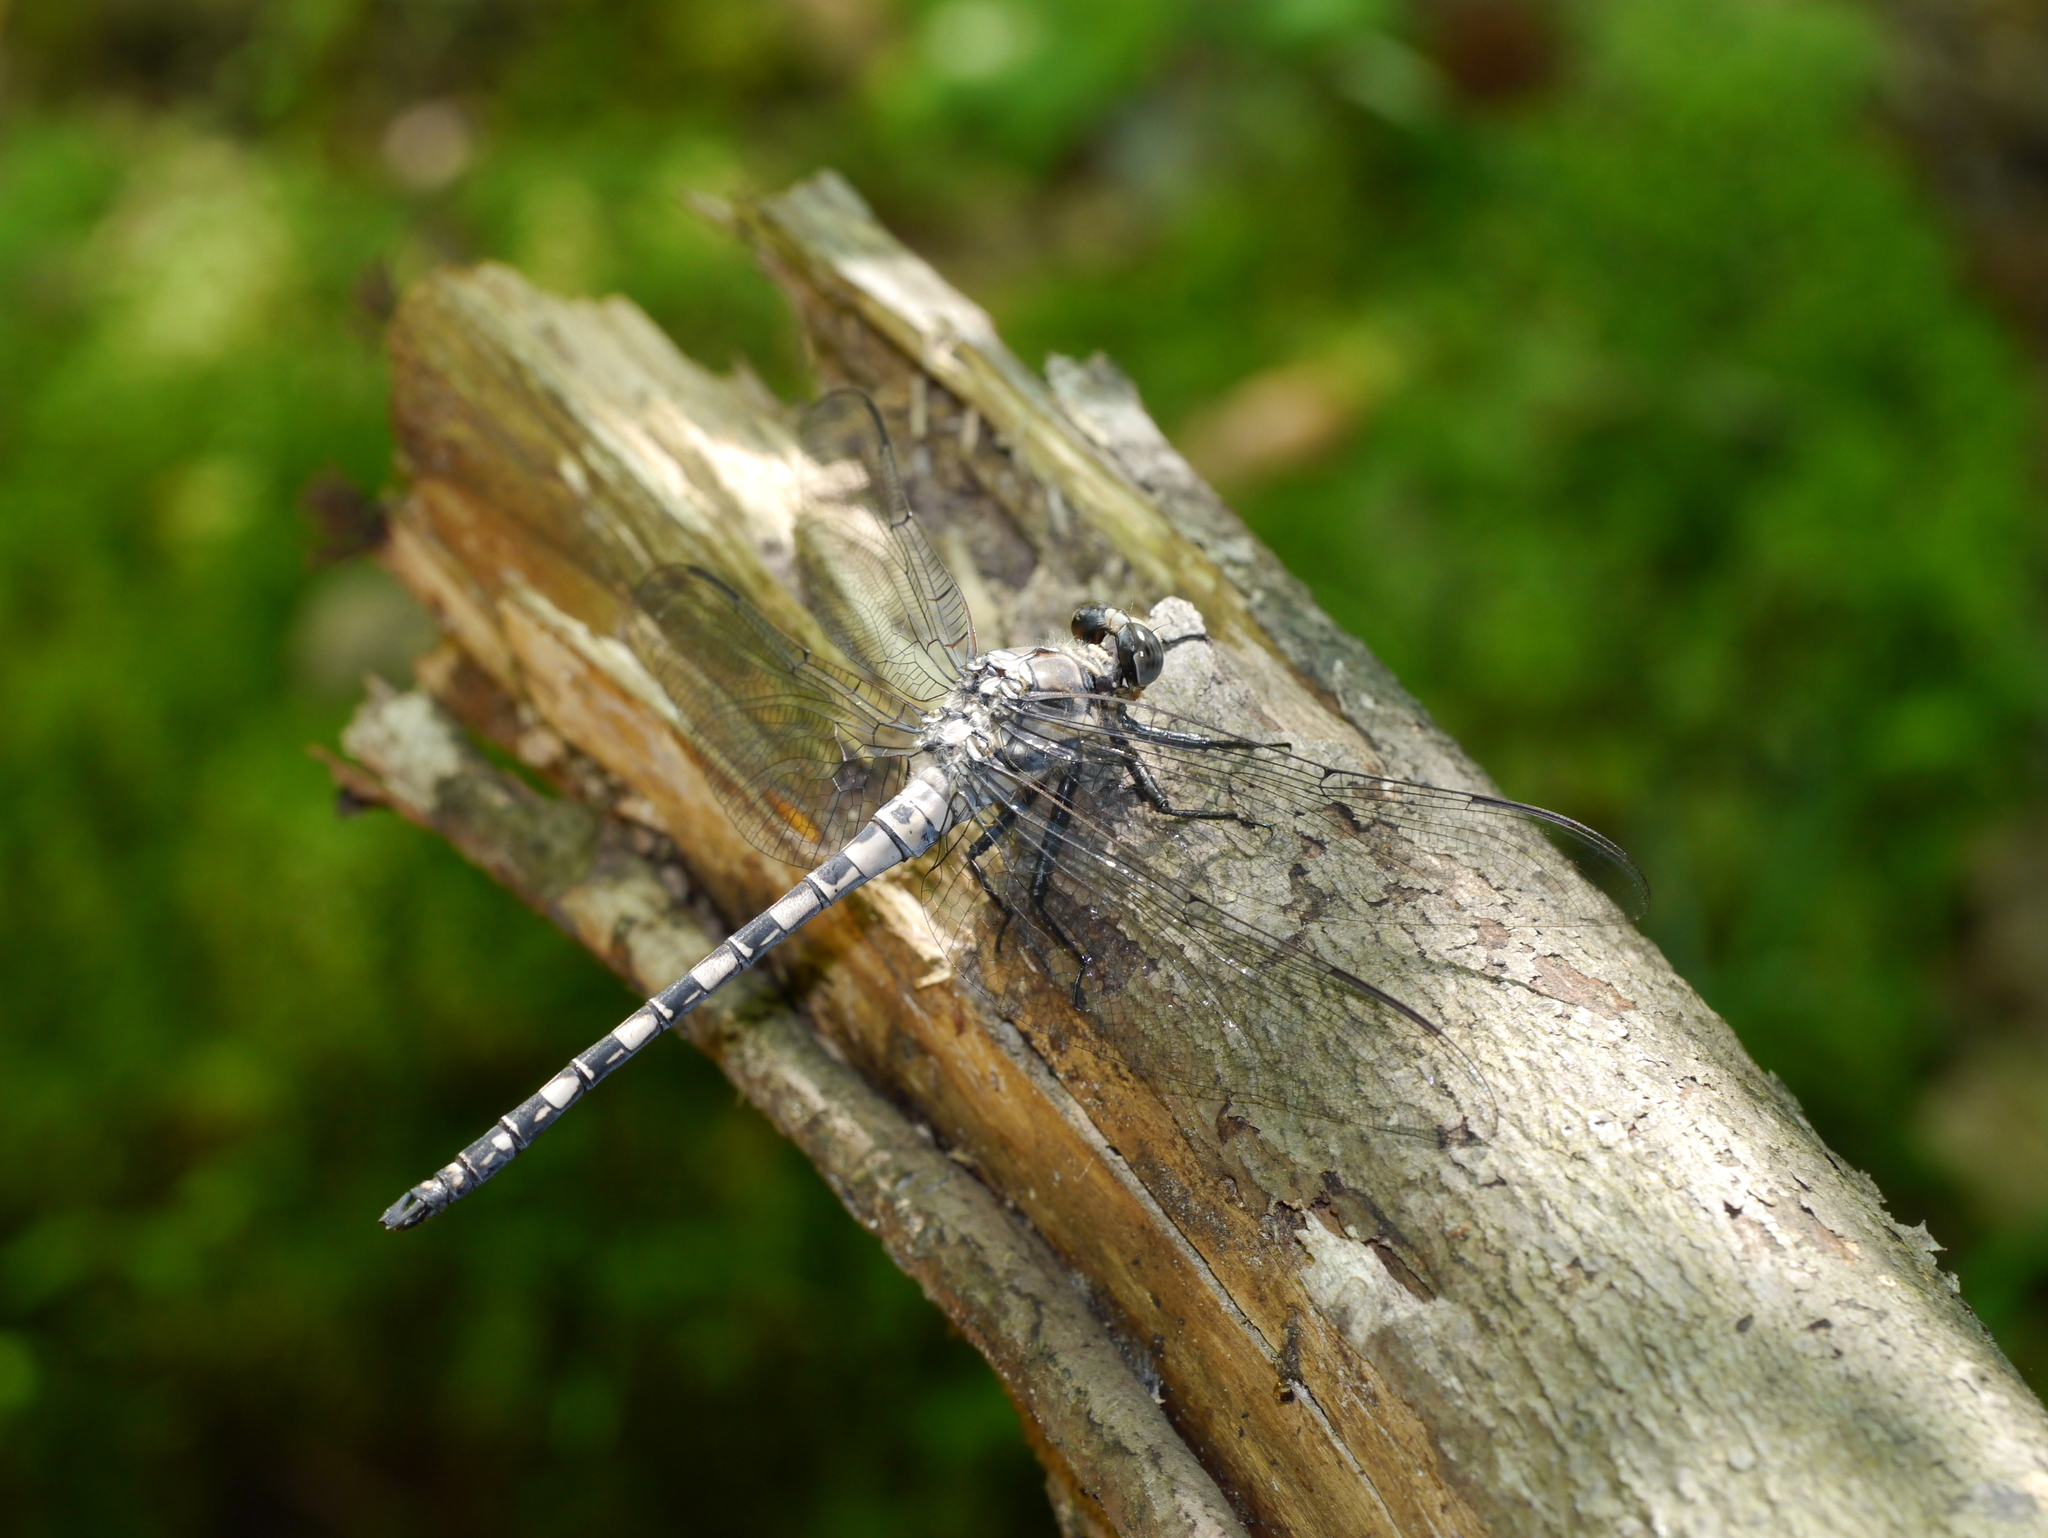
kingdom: Animalia
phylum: Arthropoda
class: Insecta
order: Odonata
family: Petaluridae
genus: Tachopteryx
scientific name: Tachopteryx thoreyi
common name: Gray petaltail
